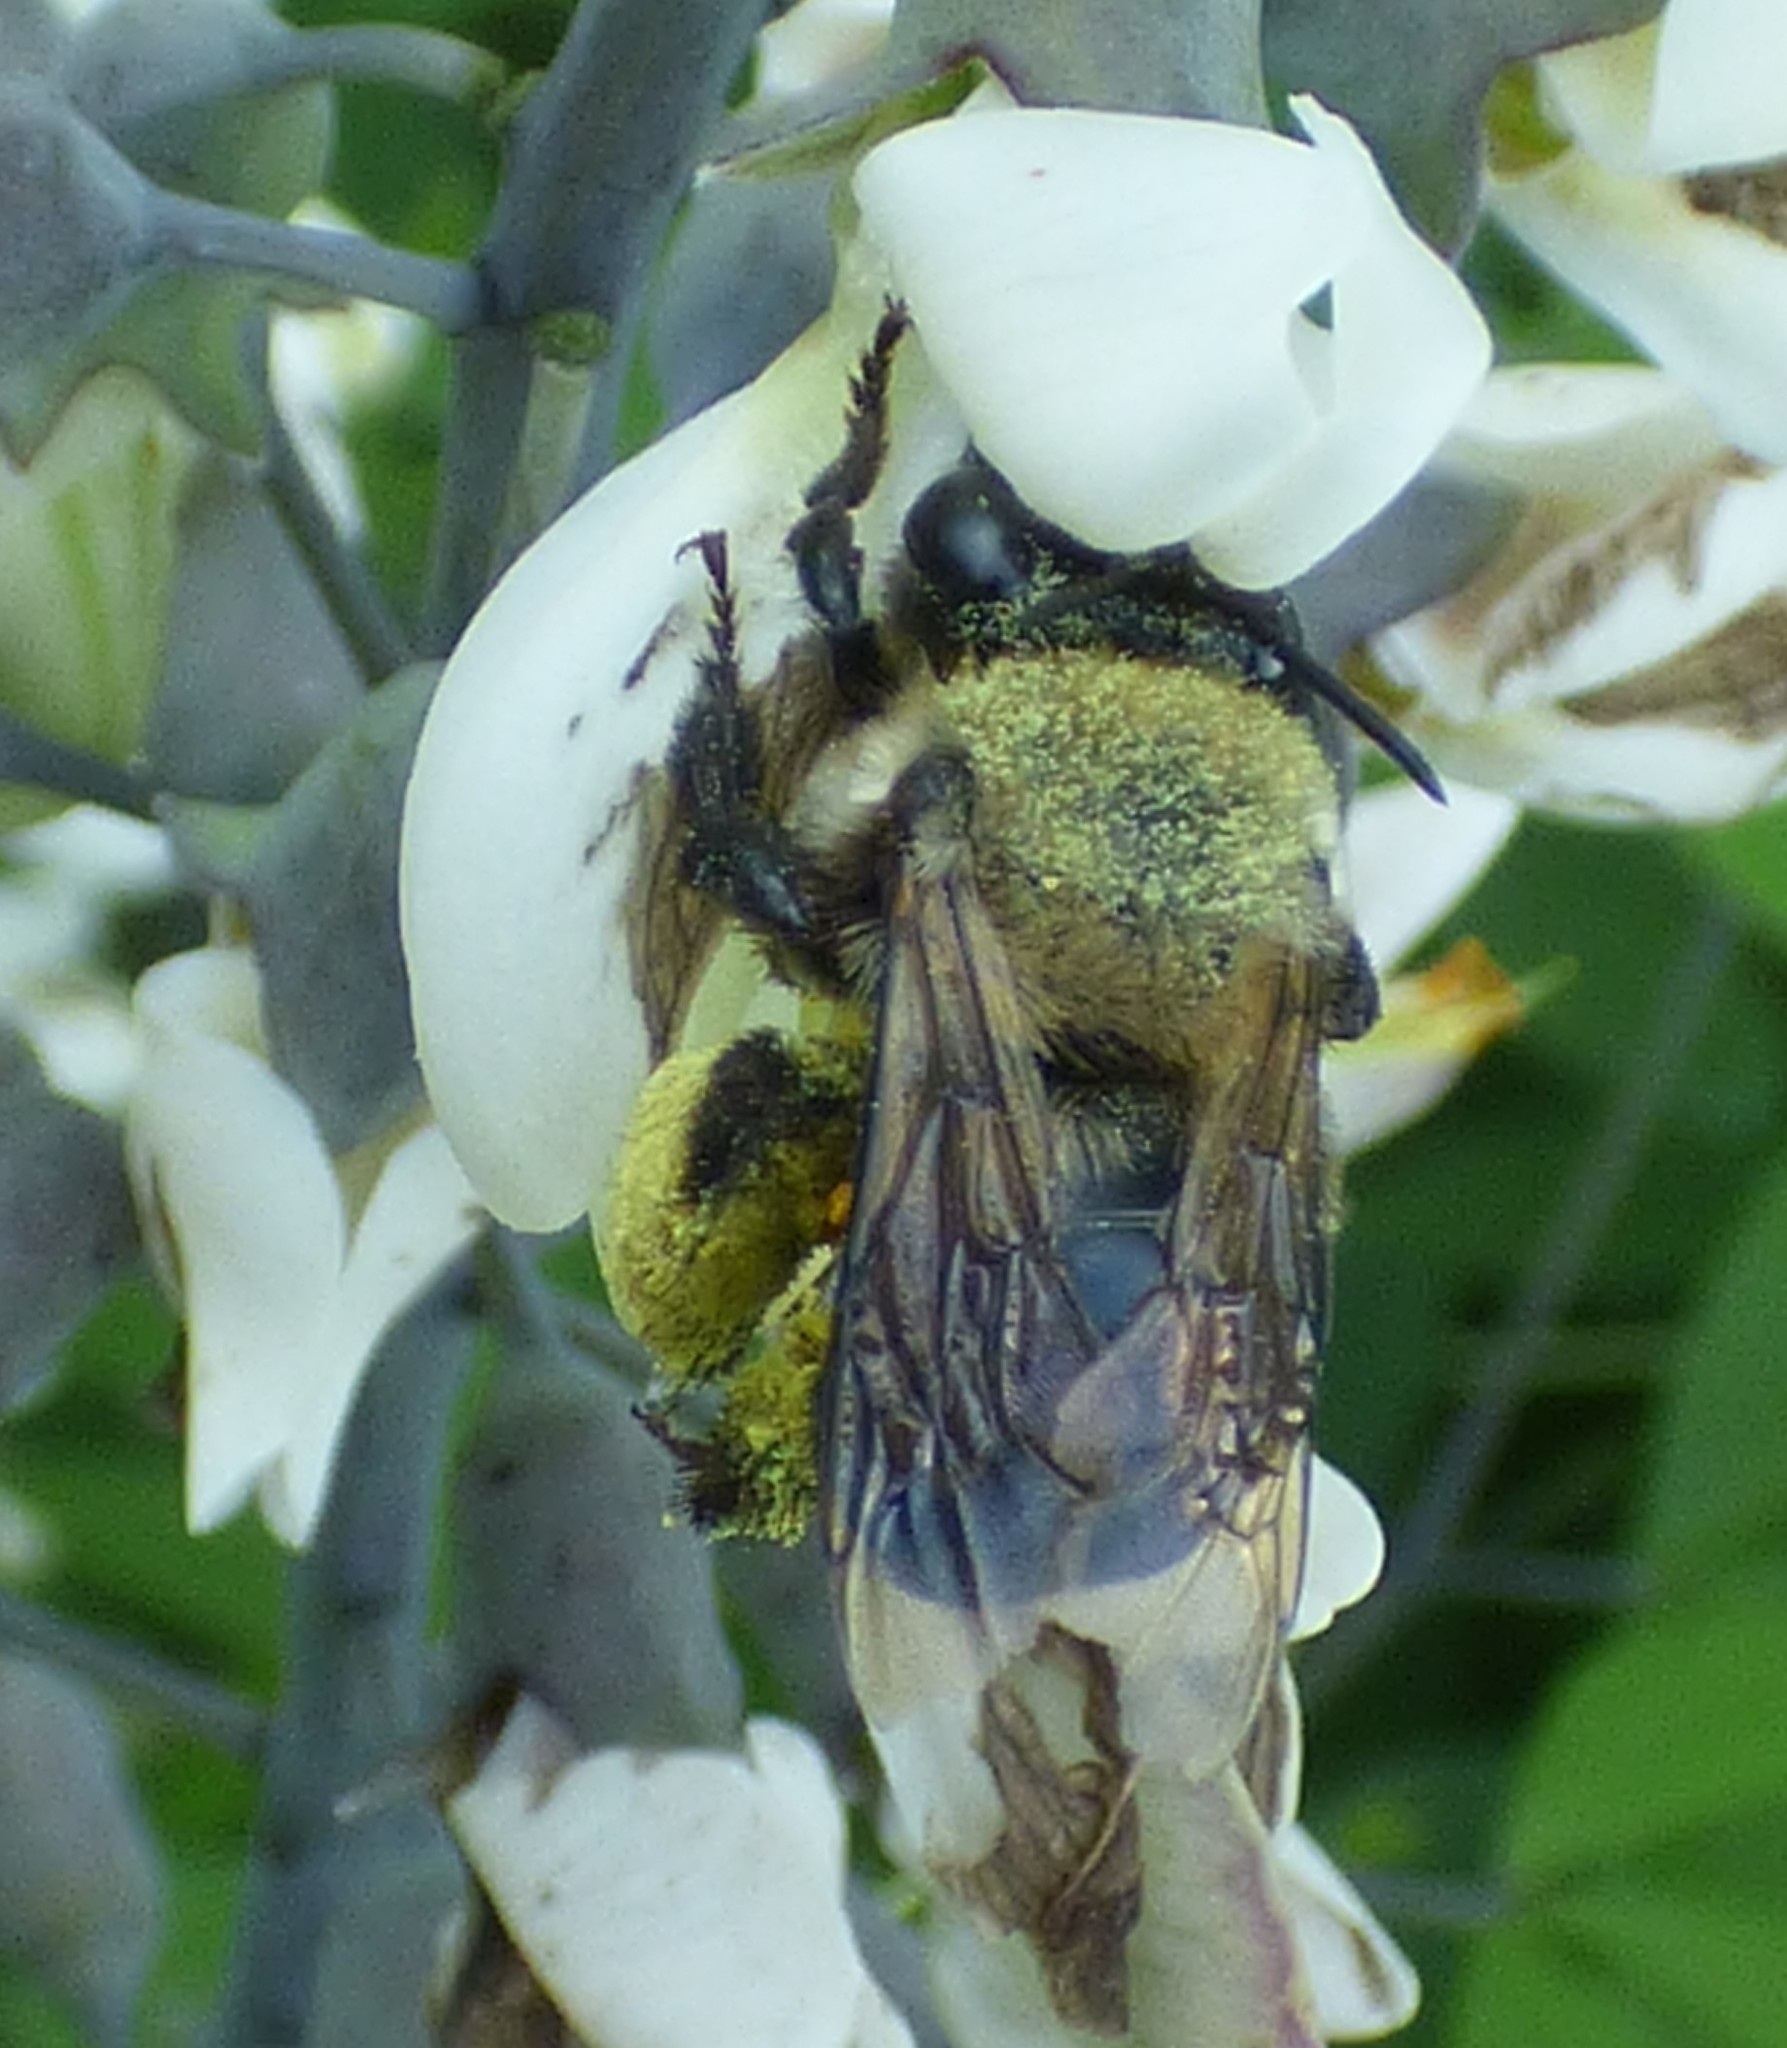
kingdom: Animalia
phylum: Arthropoda
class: Insecta
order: Hymenoptera
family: Apidae
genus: Habropoda
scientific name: Habropoda laboriosa
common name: Southeastern blueberry bee
